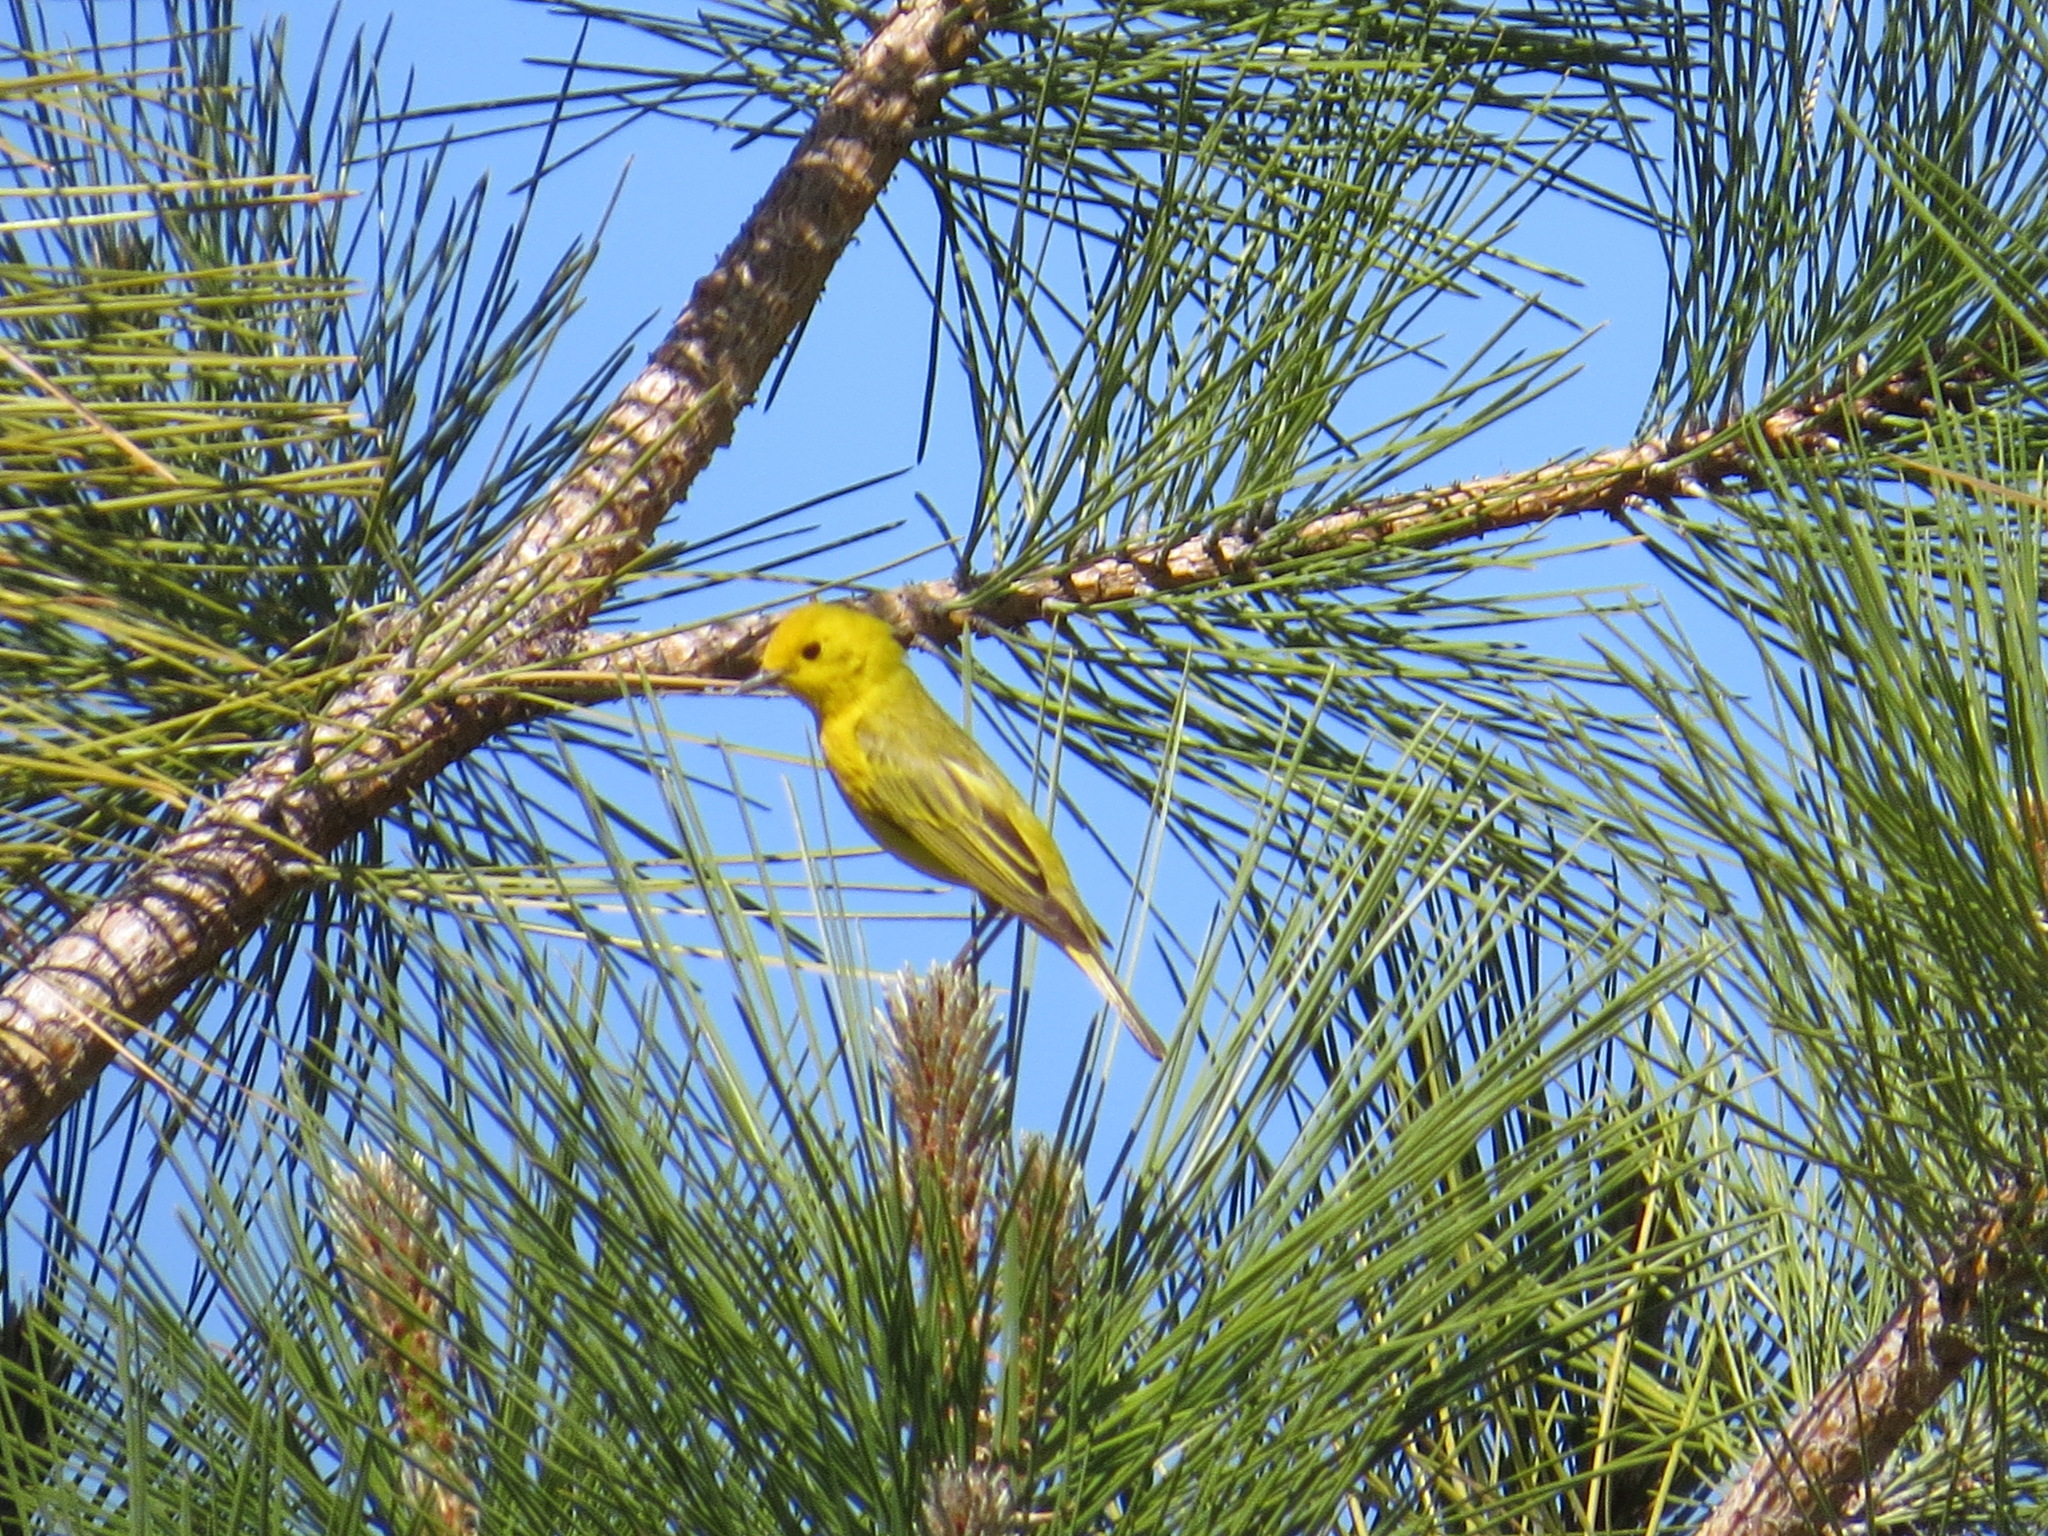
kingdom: Animalia
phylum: Chordata
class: Aves
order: Passeriformes
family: Parulidae
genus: Setophaga
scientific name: Setophaga petechia
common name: Yellow warbler
